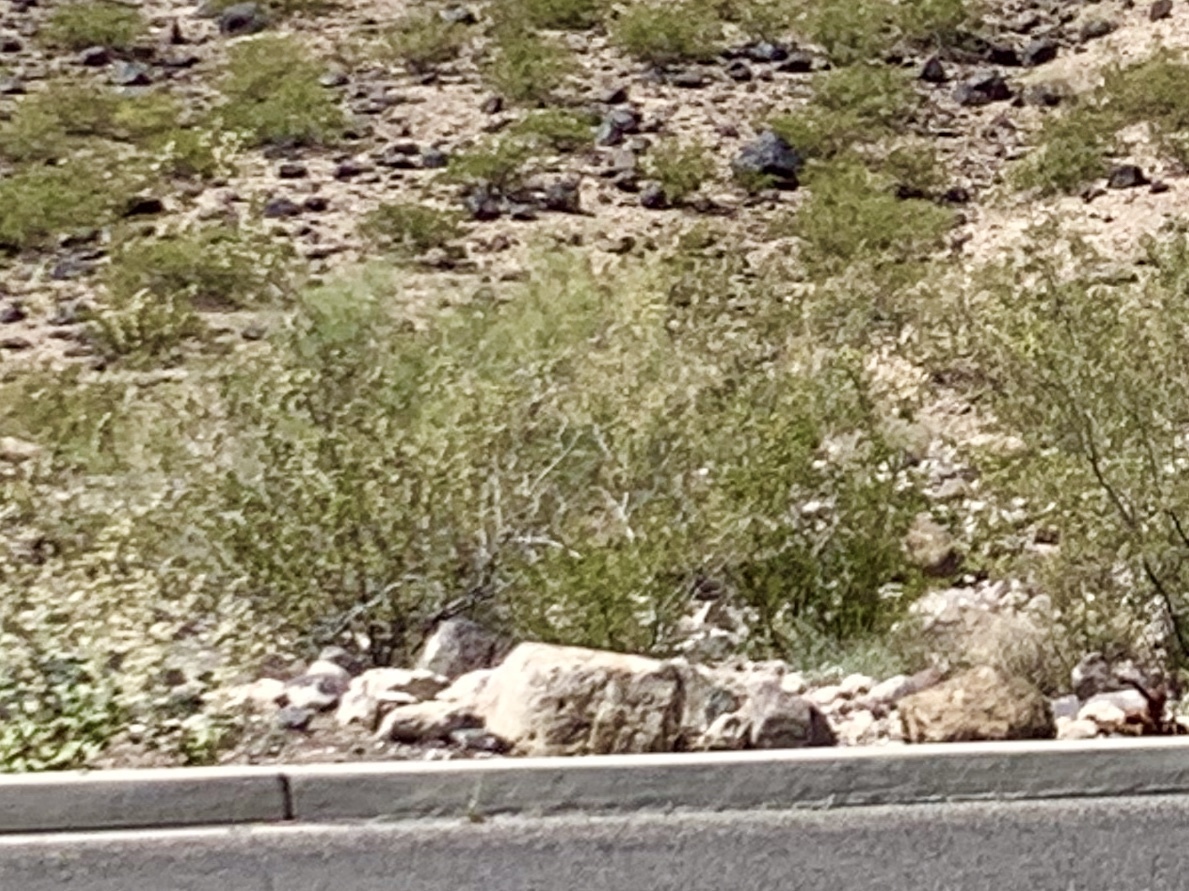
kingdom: Plantae
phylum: Tracheophyta
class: Magnoliopsida
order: Zygophyllales
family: Zygophyllaceae
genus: Larrea
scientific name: Larrea tridentata
